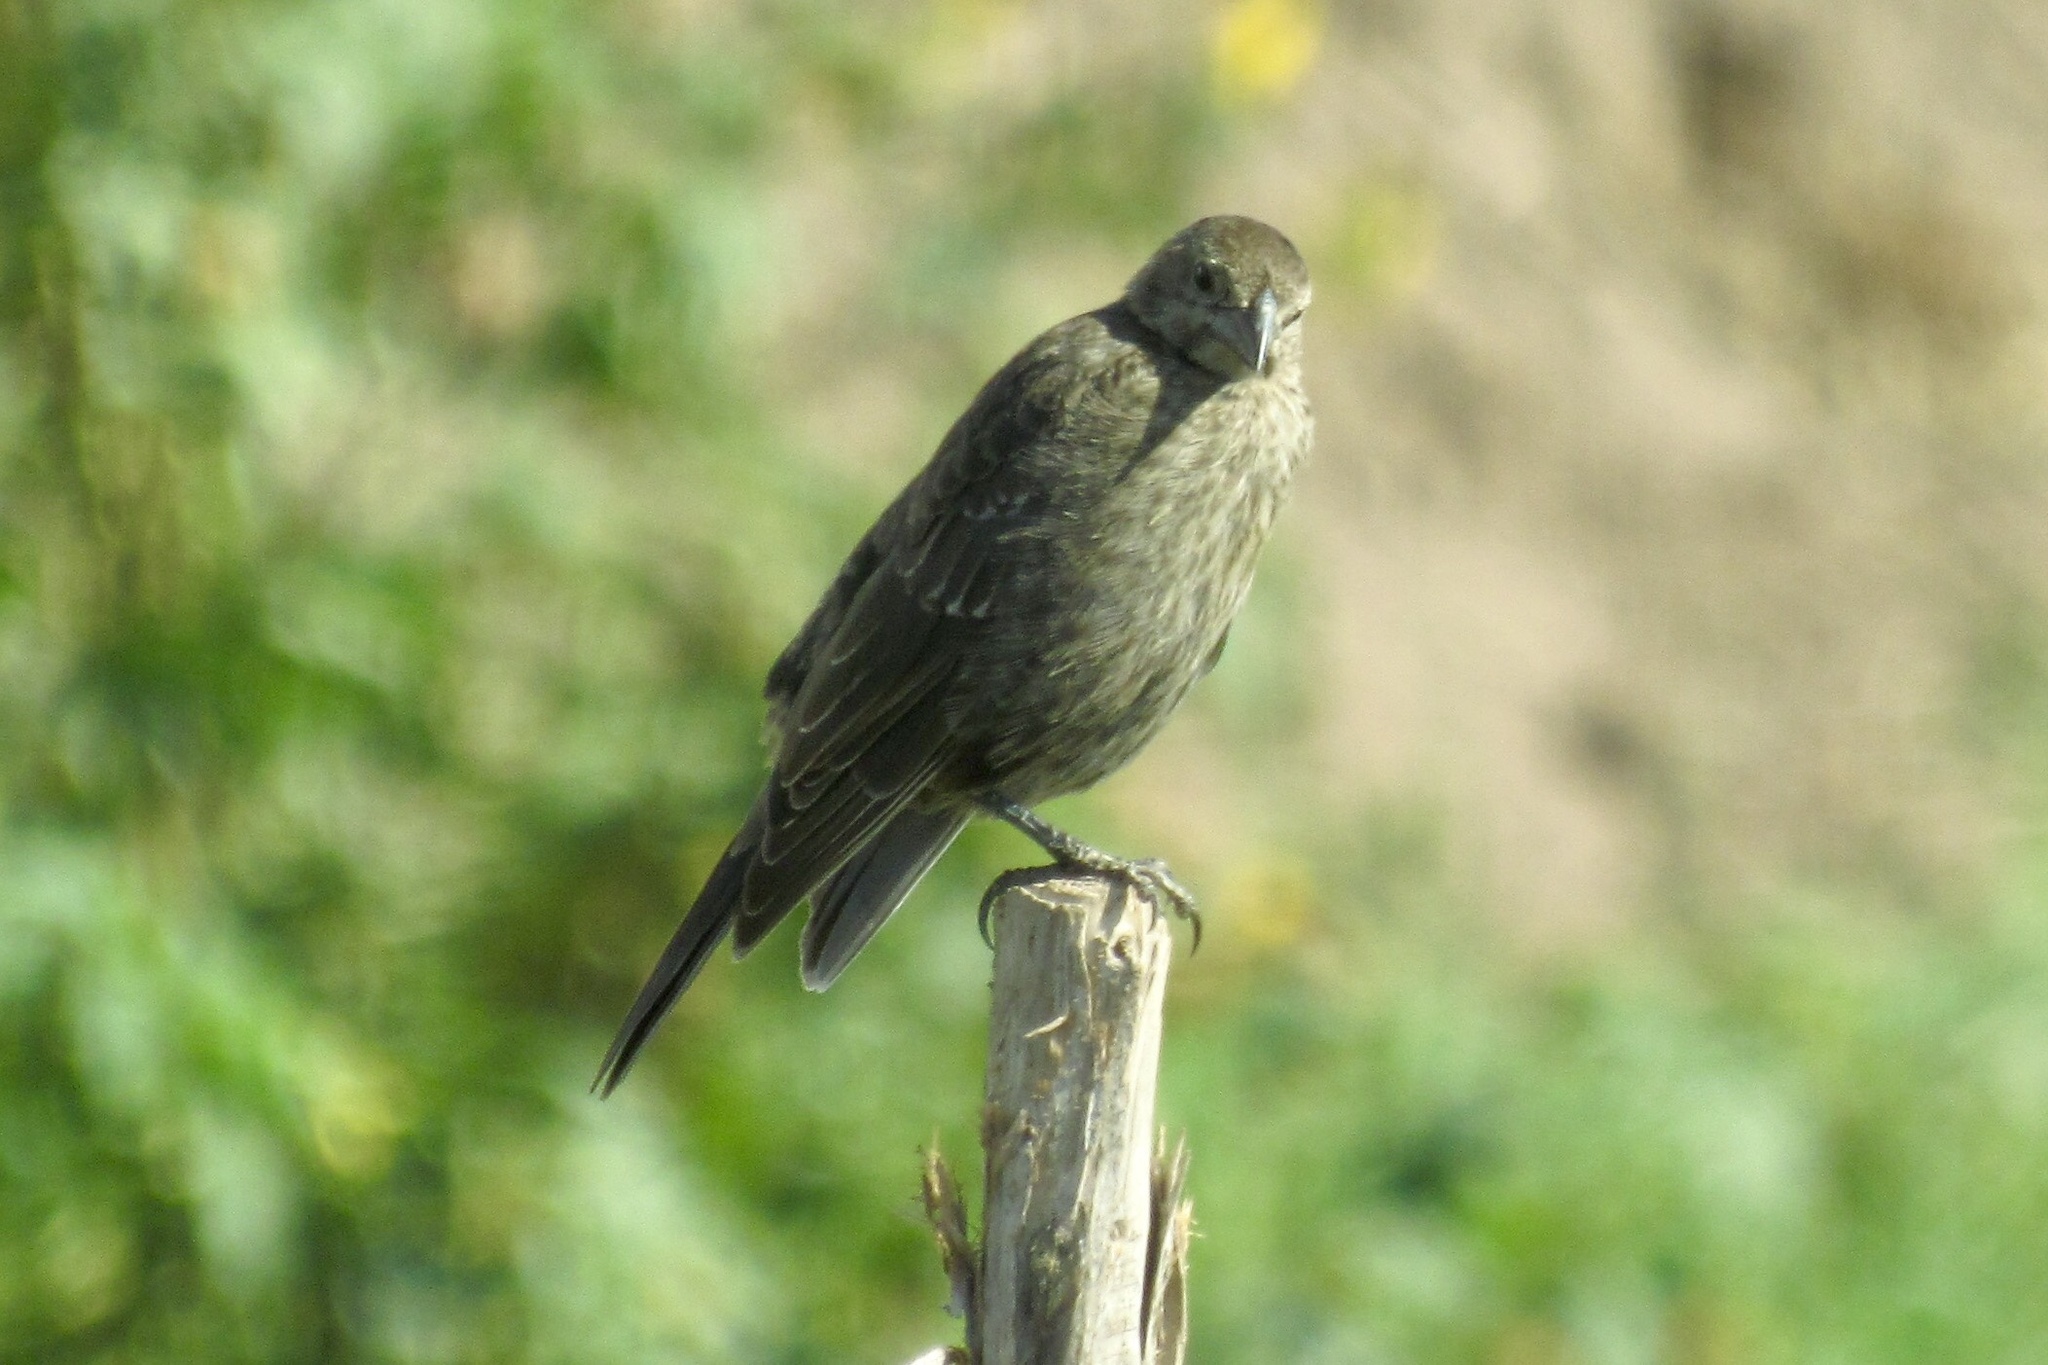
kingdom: Animalia
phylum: Chordata
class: Aves
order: Passeriformes
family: Icteridae
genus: Molothrus
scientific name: Molothrus ater
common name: Brown-headed cowbird
